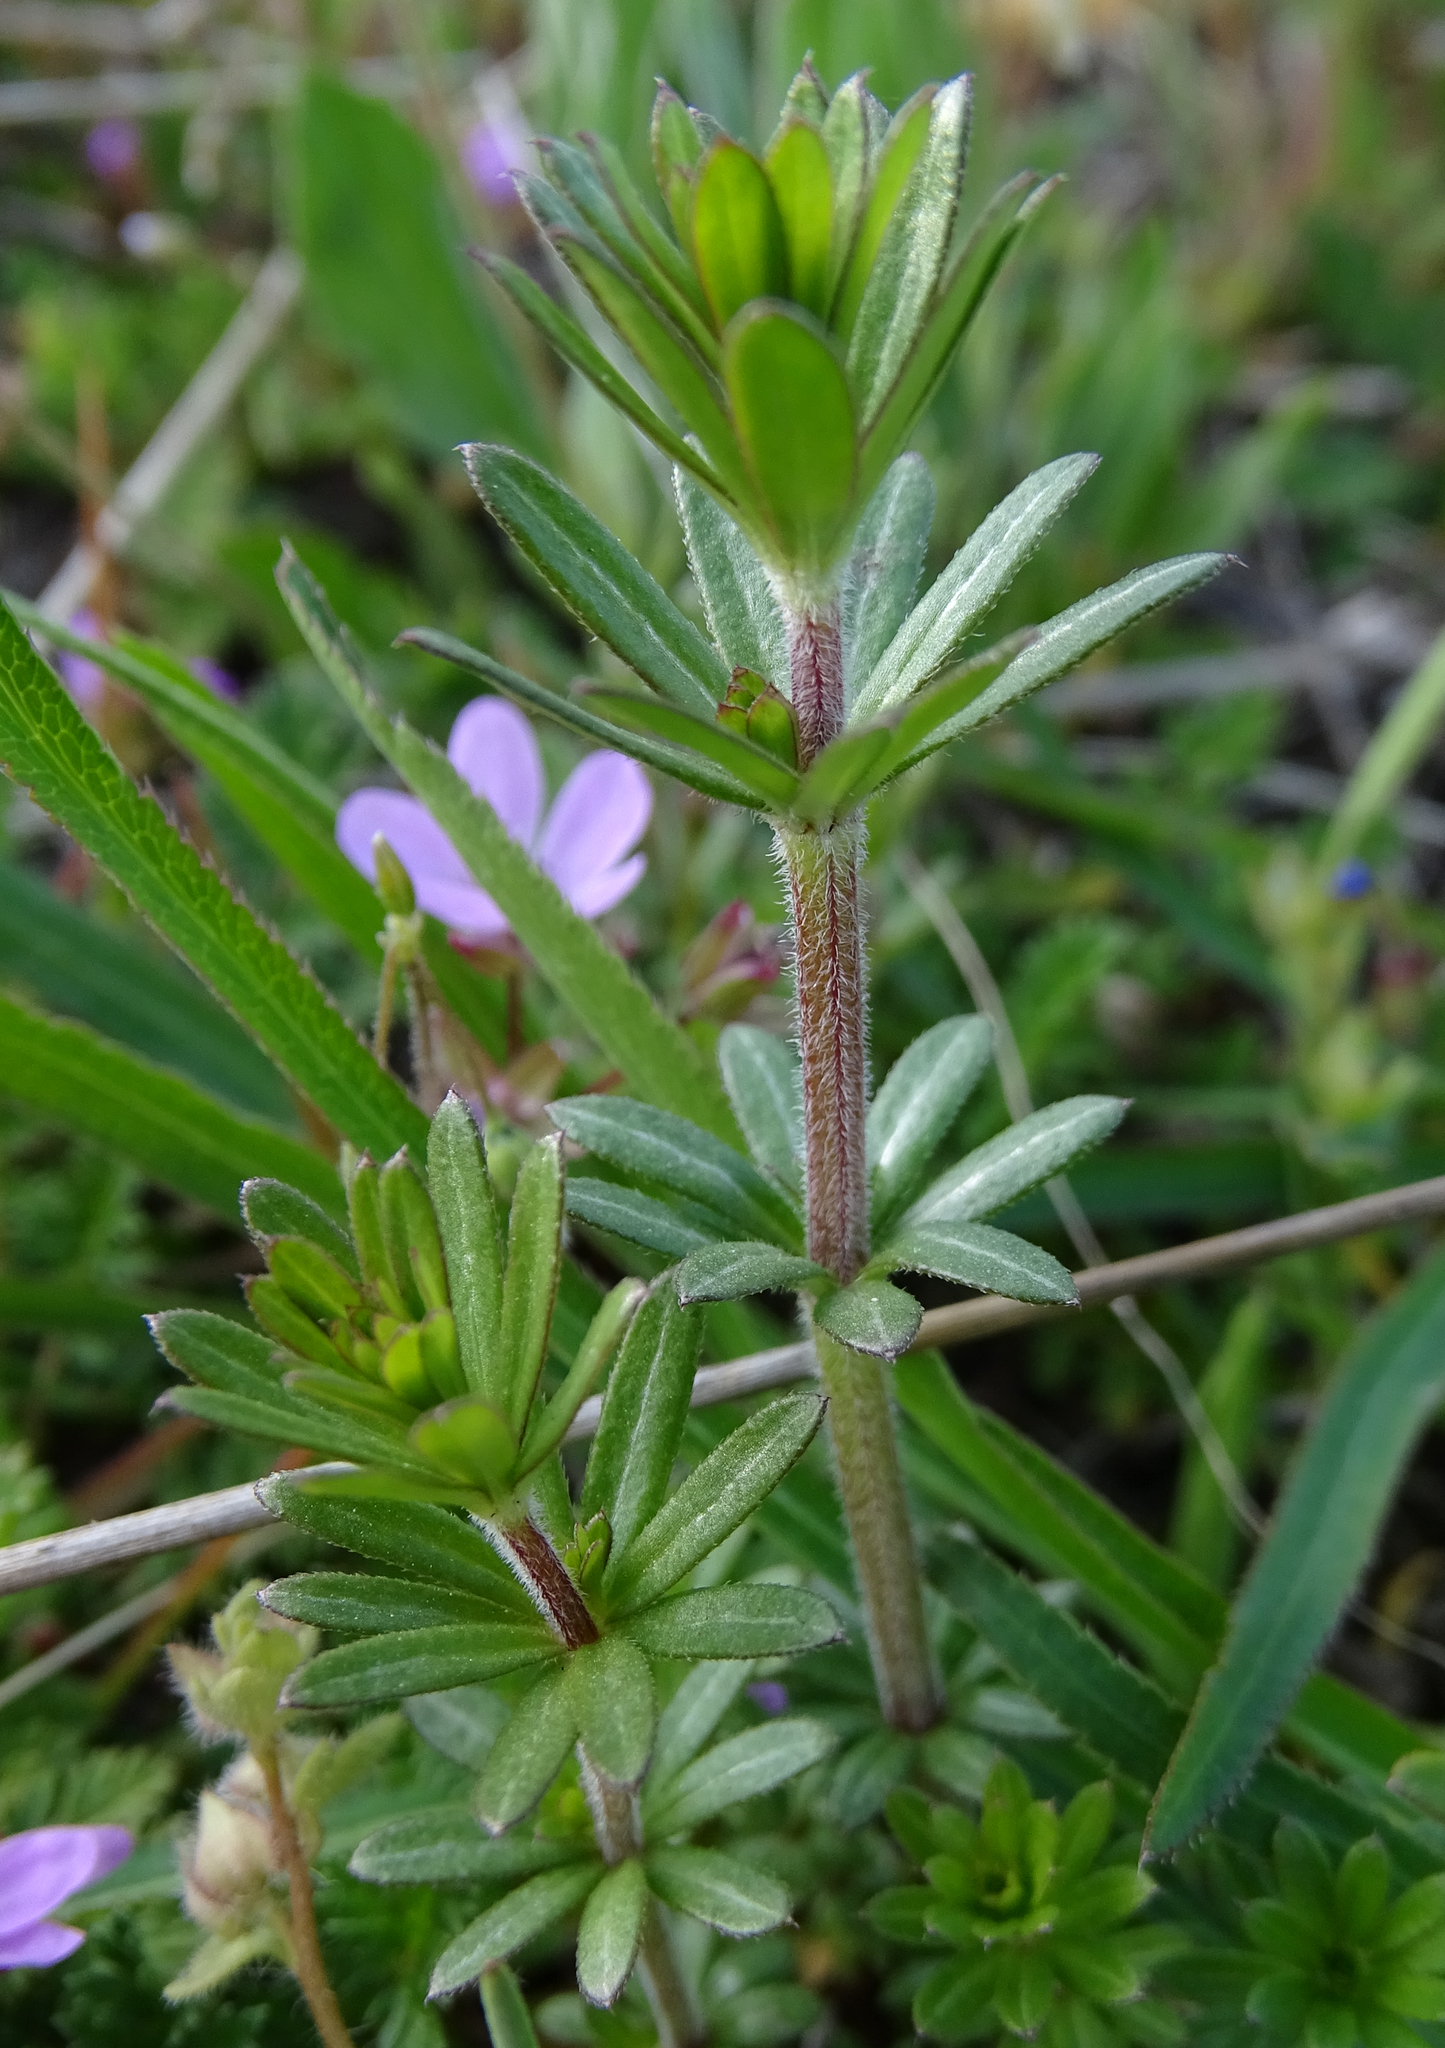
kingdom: Plantae
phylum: Tracheophyta
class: Magnoliopsida
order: Gentianales
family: Rubiaceae
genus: Galium
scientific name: Galium album
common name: White bedstraw
